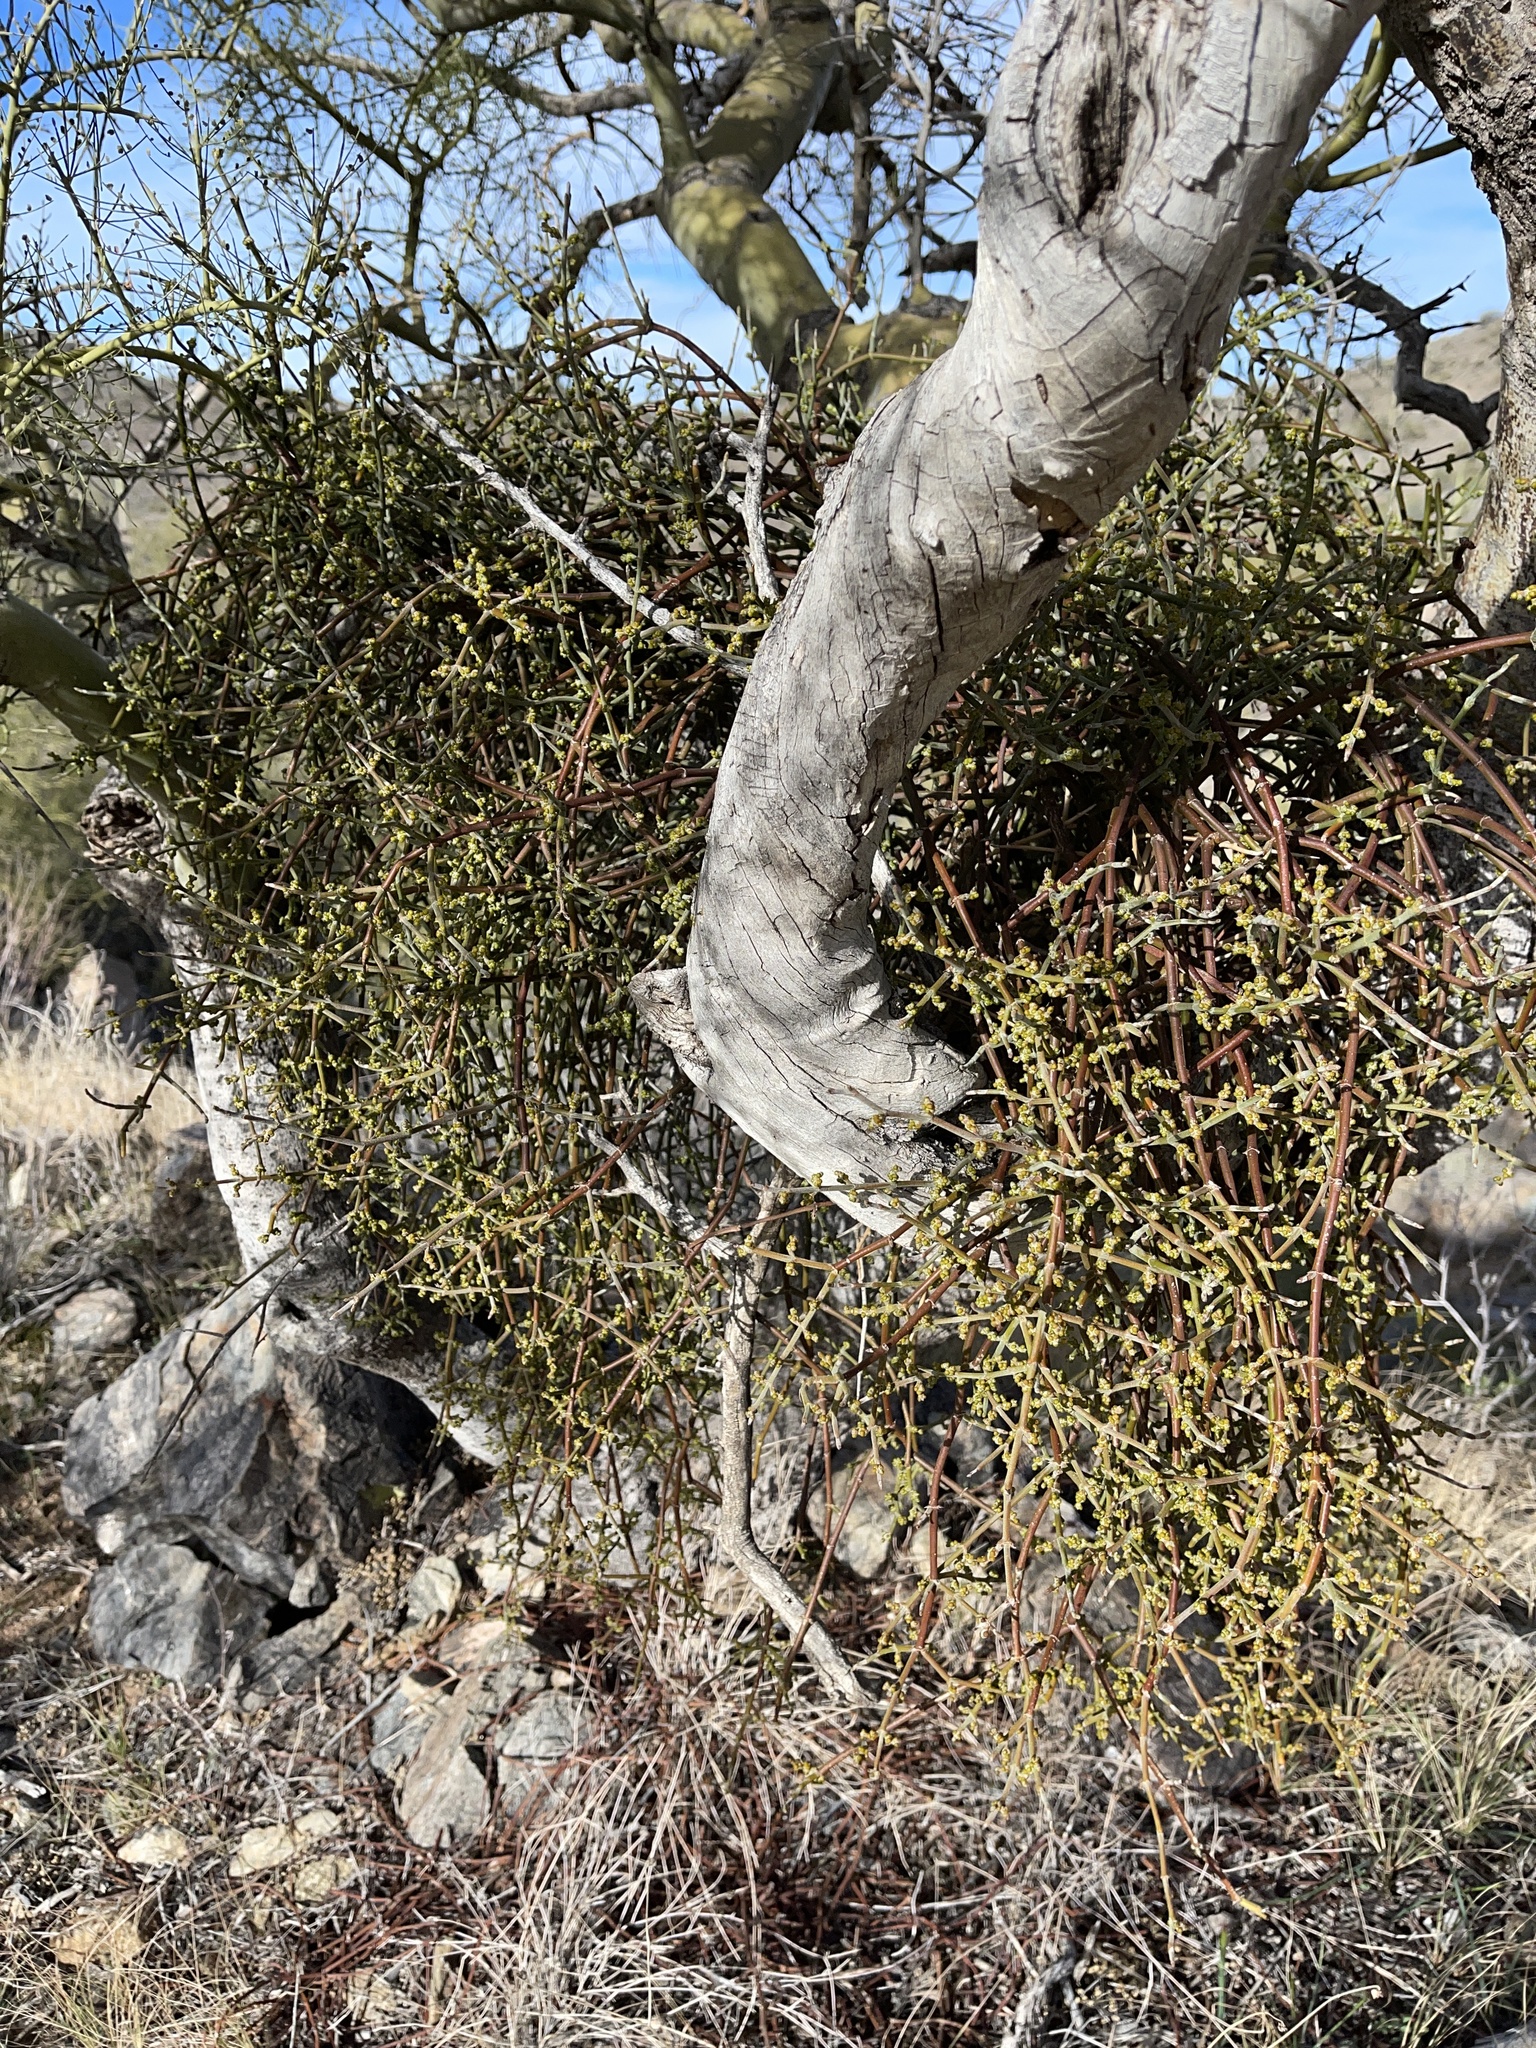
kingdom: Plantae
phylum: Tracheophyta
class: Magnoliopsida
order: Santalales
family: Viscaceae
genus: Phoradendron
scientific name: Phoradendron californicum
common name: Acacia mistletoe
